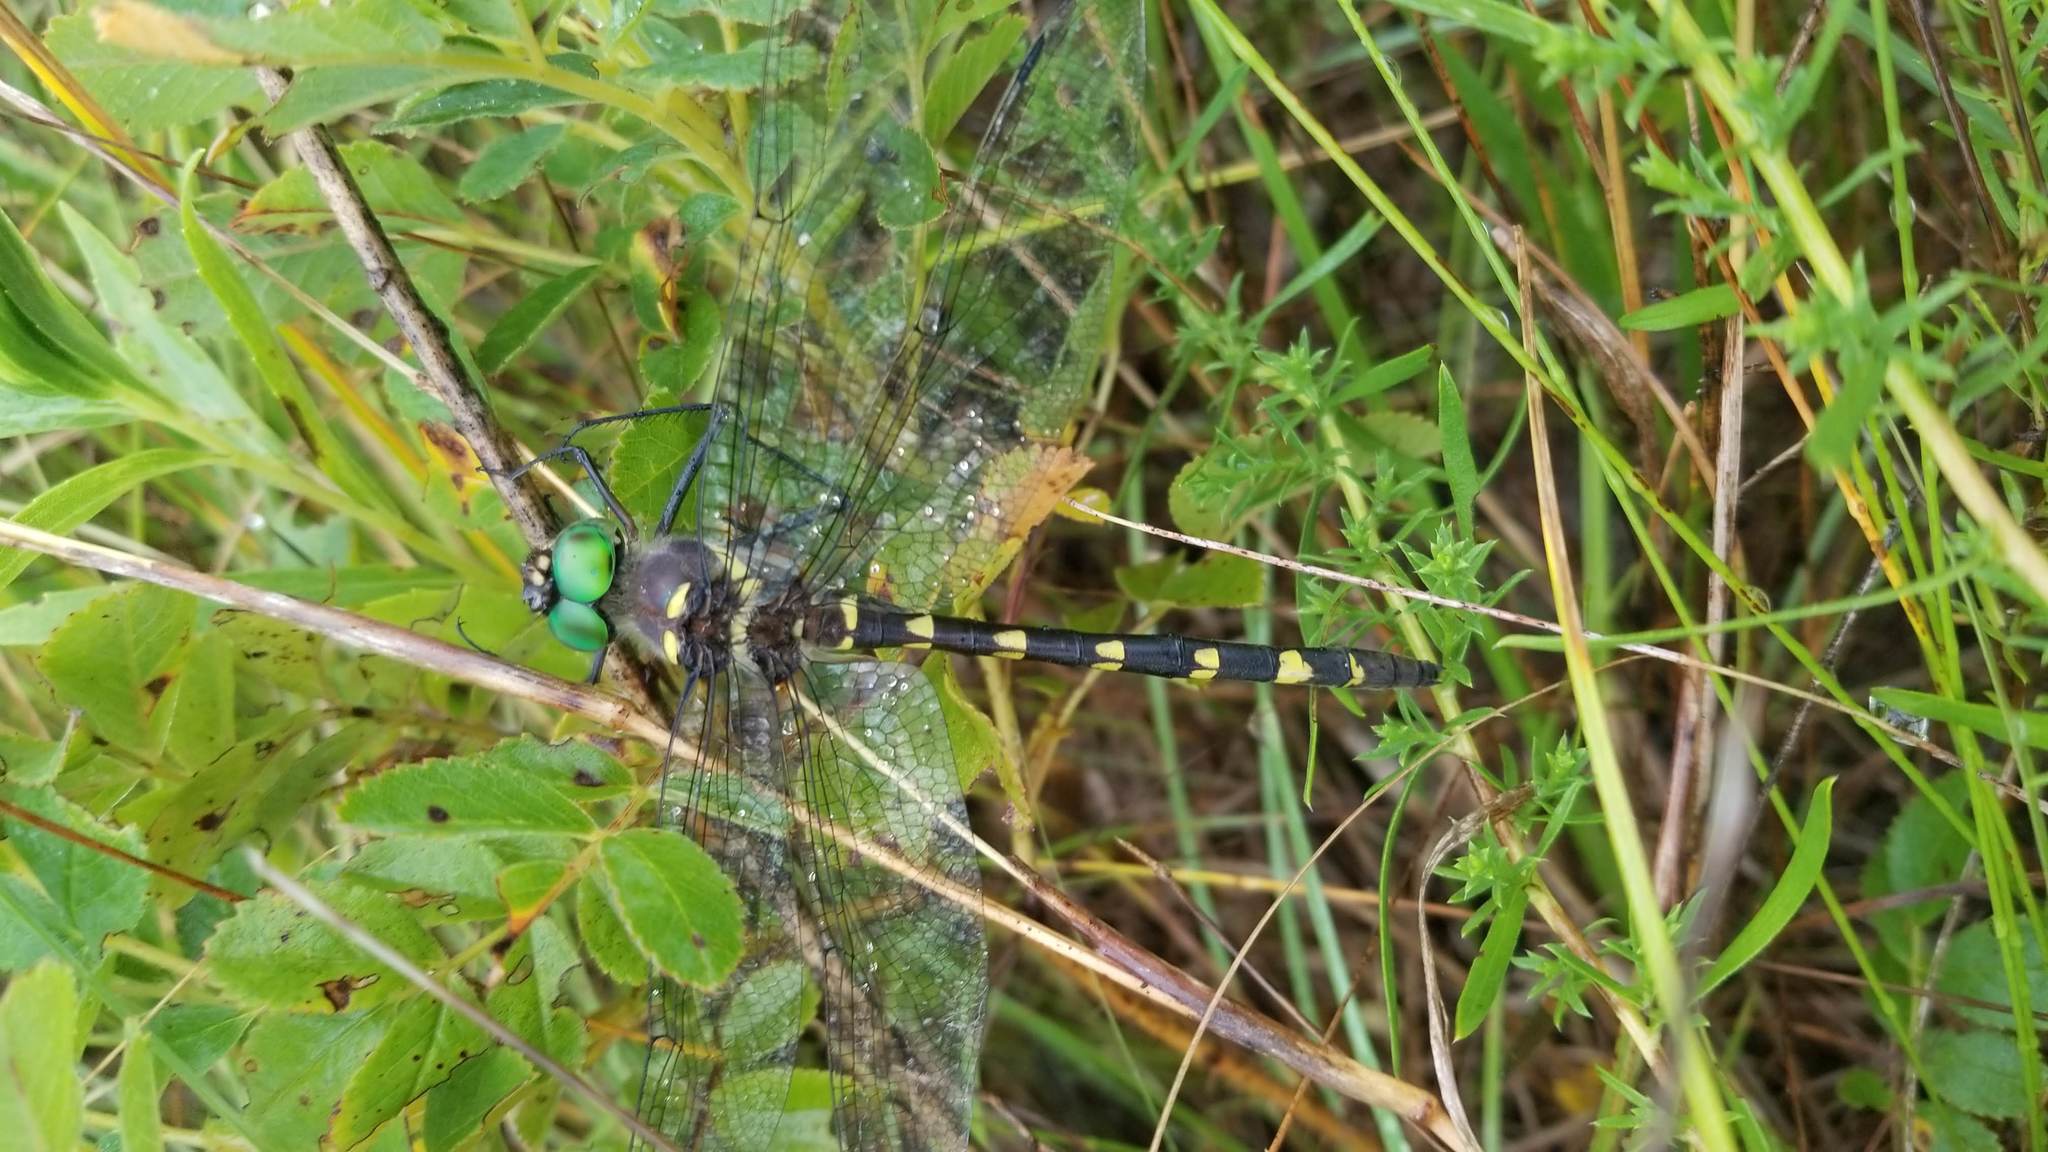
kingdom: Animalia
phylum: Arthropoda
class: Insecta
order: Odonata
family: Macromiidae
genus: Macromia
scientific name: Macromia illinoiensis
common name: Swift river cruiser
